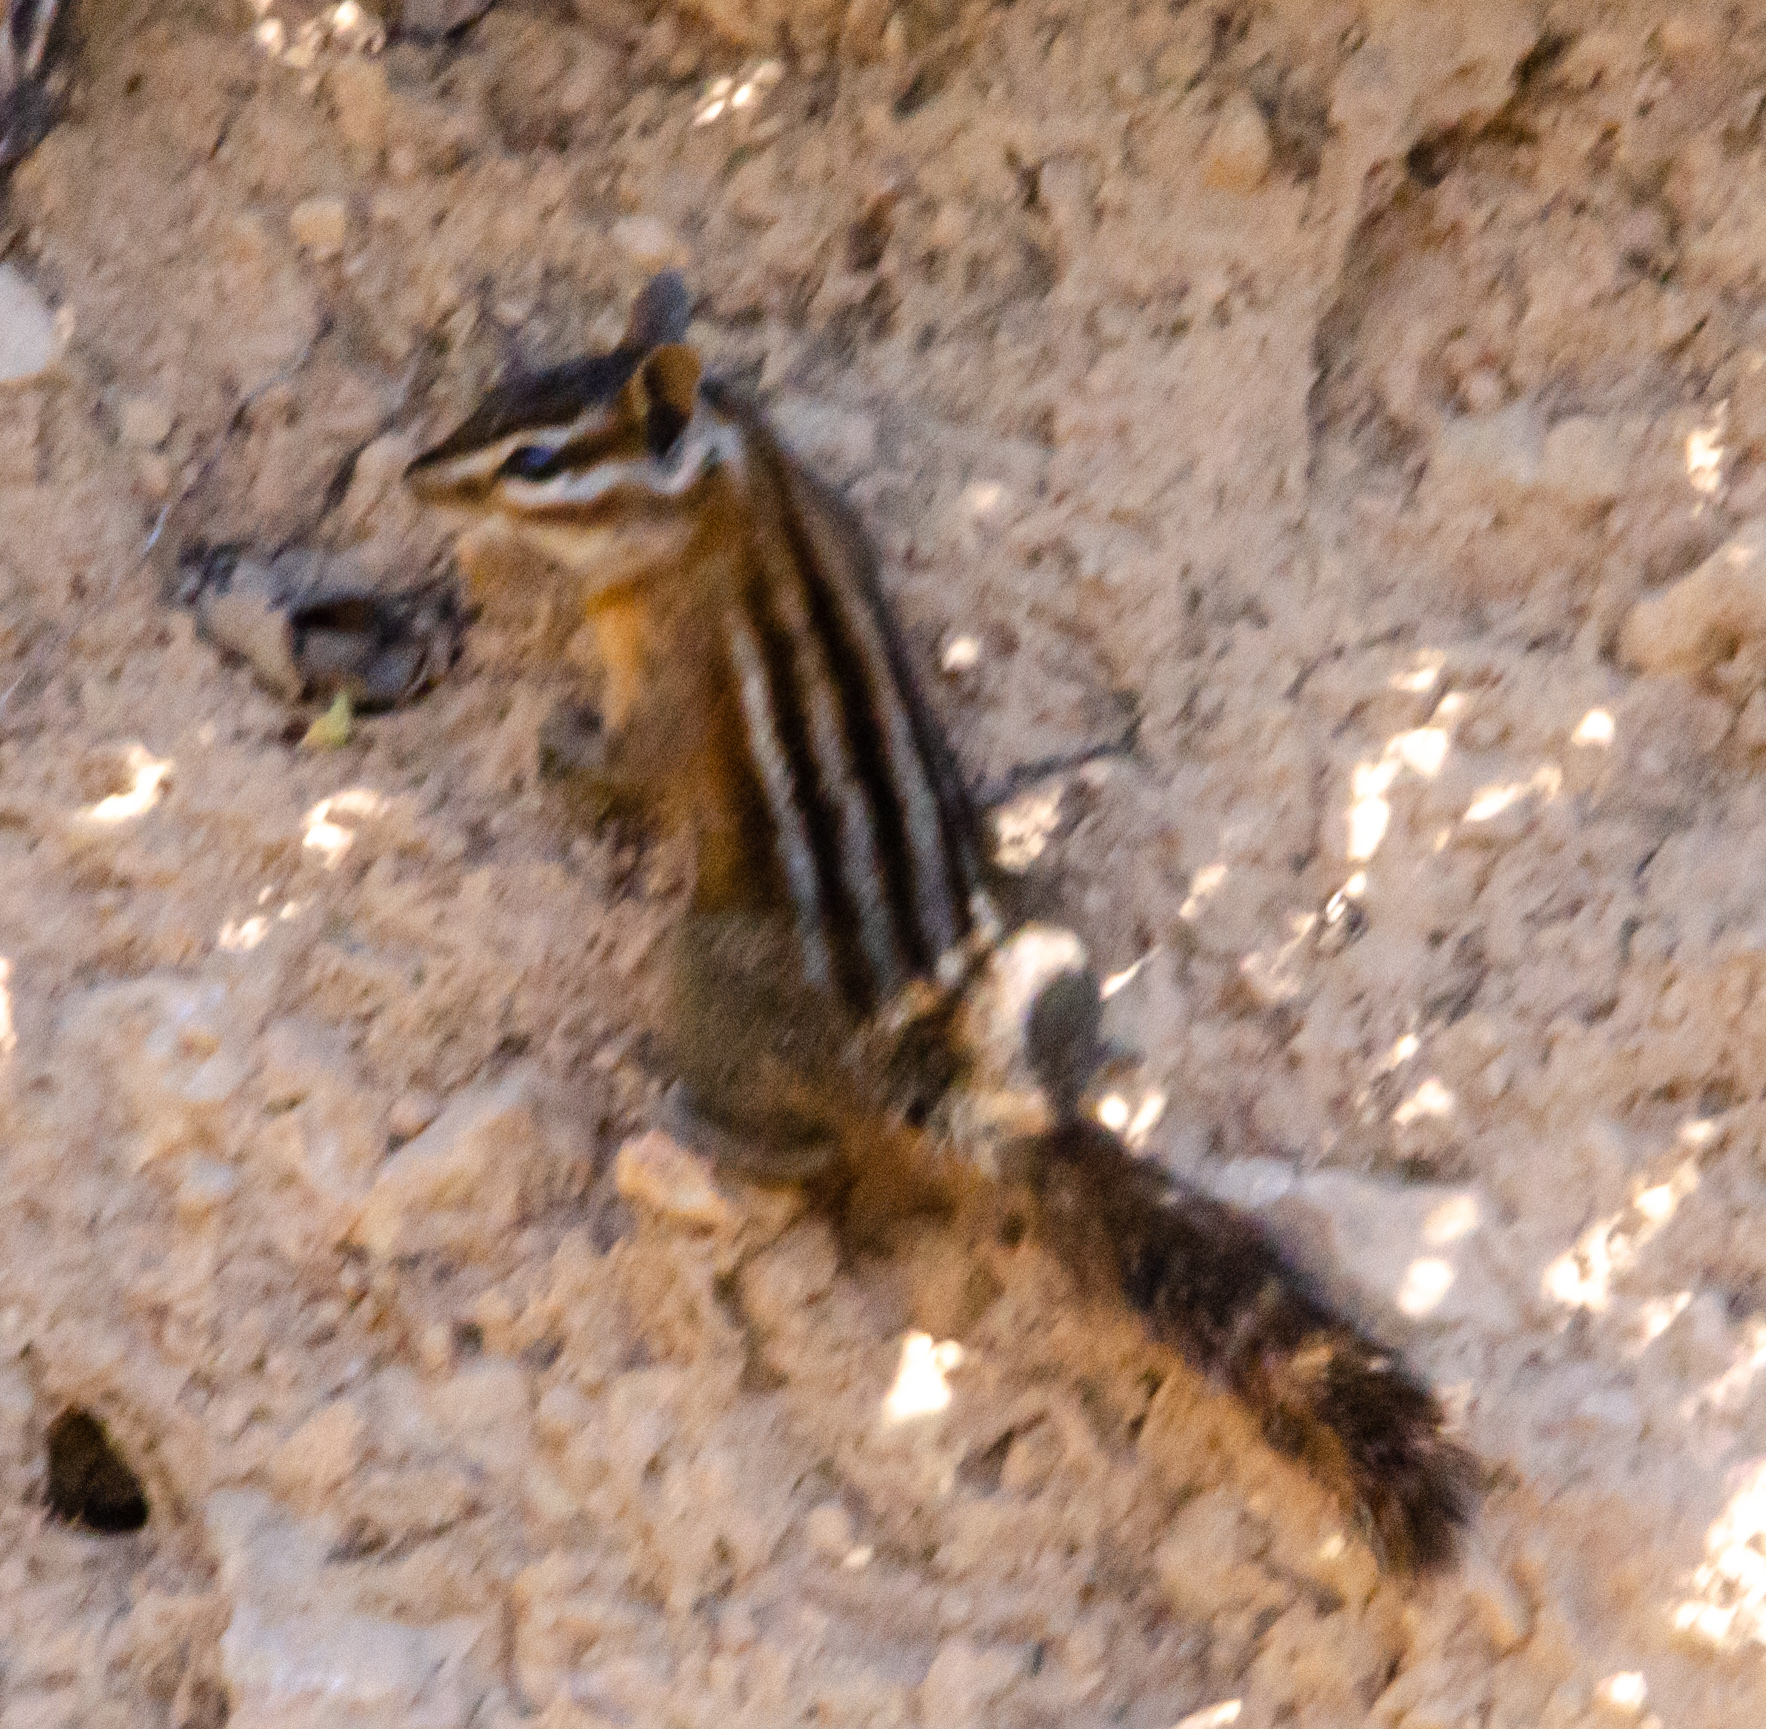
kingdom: Animalia
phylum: Chordata
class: Mammalia
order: Rodentia
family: Sciuridae
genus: Tamias
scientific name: Tamias sonomae
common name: Sonoma chipmunk
